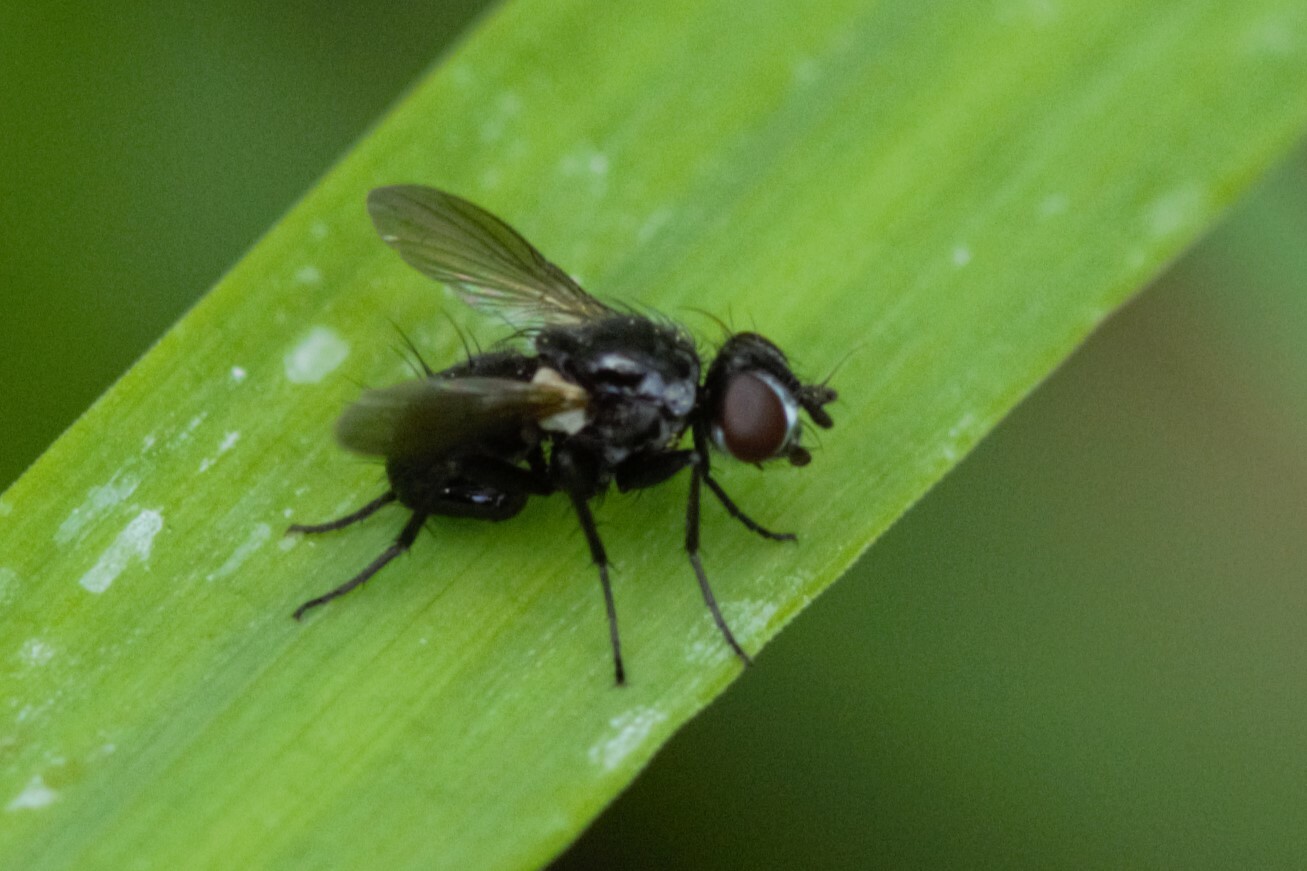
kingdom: Animalia
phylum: Arthropoda
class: Insecta
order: Diptera
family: Tachinidae
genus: Phania
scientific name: Phania funesta
